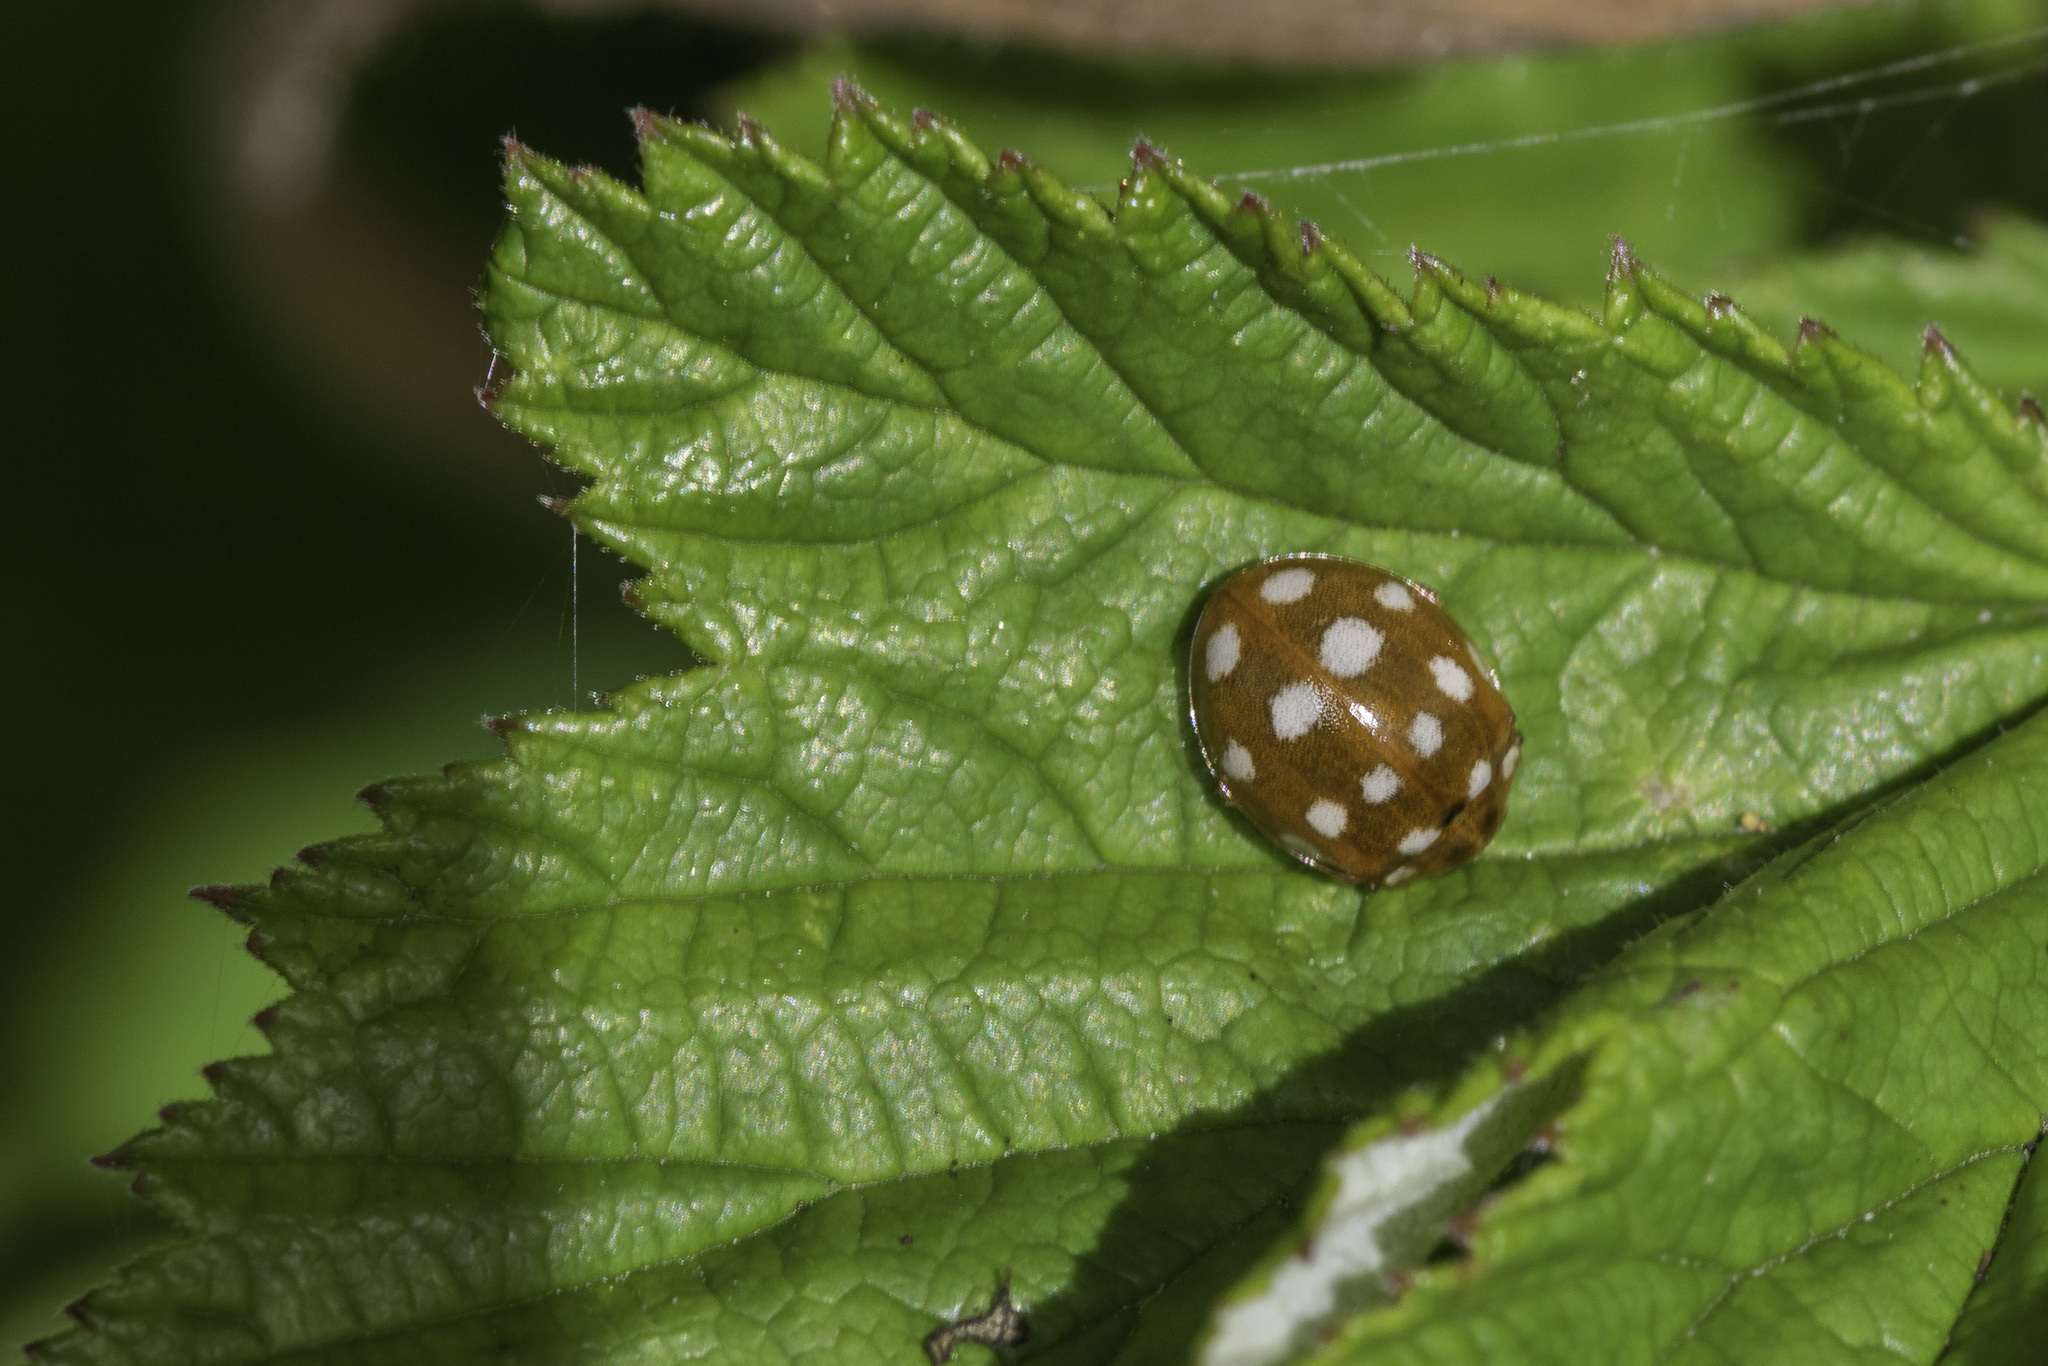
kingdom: Animalia
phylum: Arthropoda
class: Insecta
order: Coleoptera
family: Coccinellidae
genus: Calvia
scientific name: Calvia quatuordecimguttata
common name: Cream-spot ladybird
